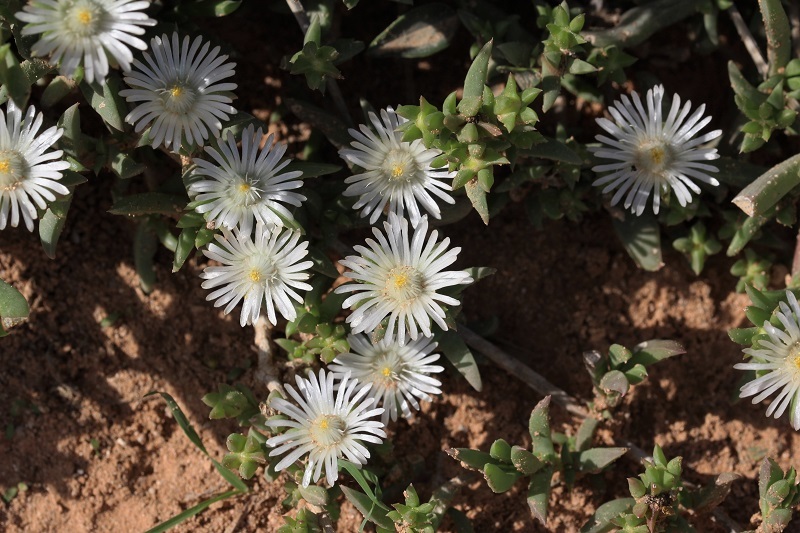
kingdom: Plantae
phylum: Tracheophyta
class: Magnoliopsida
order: Caryophyllales
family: Aizoaceae
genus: Delosperma
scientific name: Delosperma uncinatum
